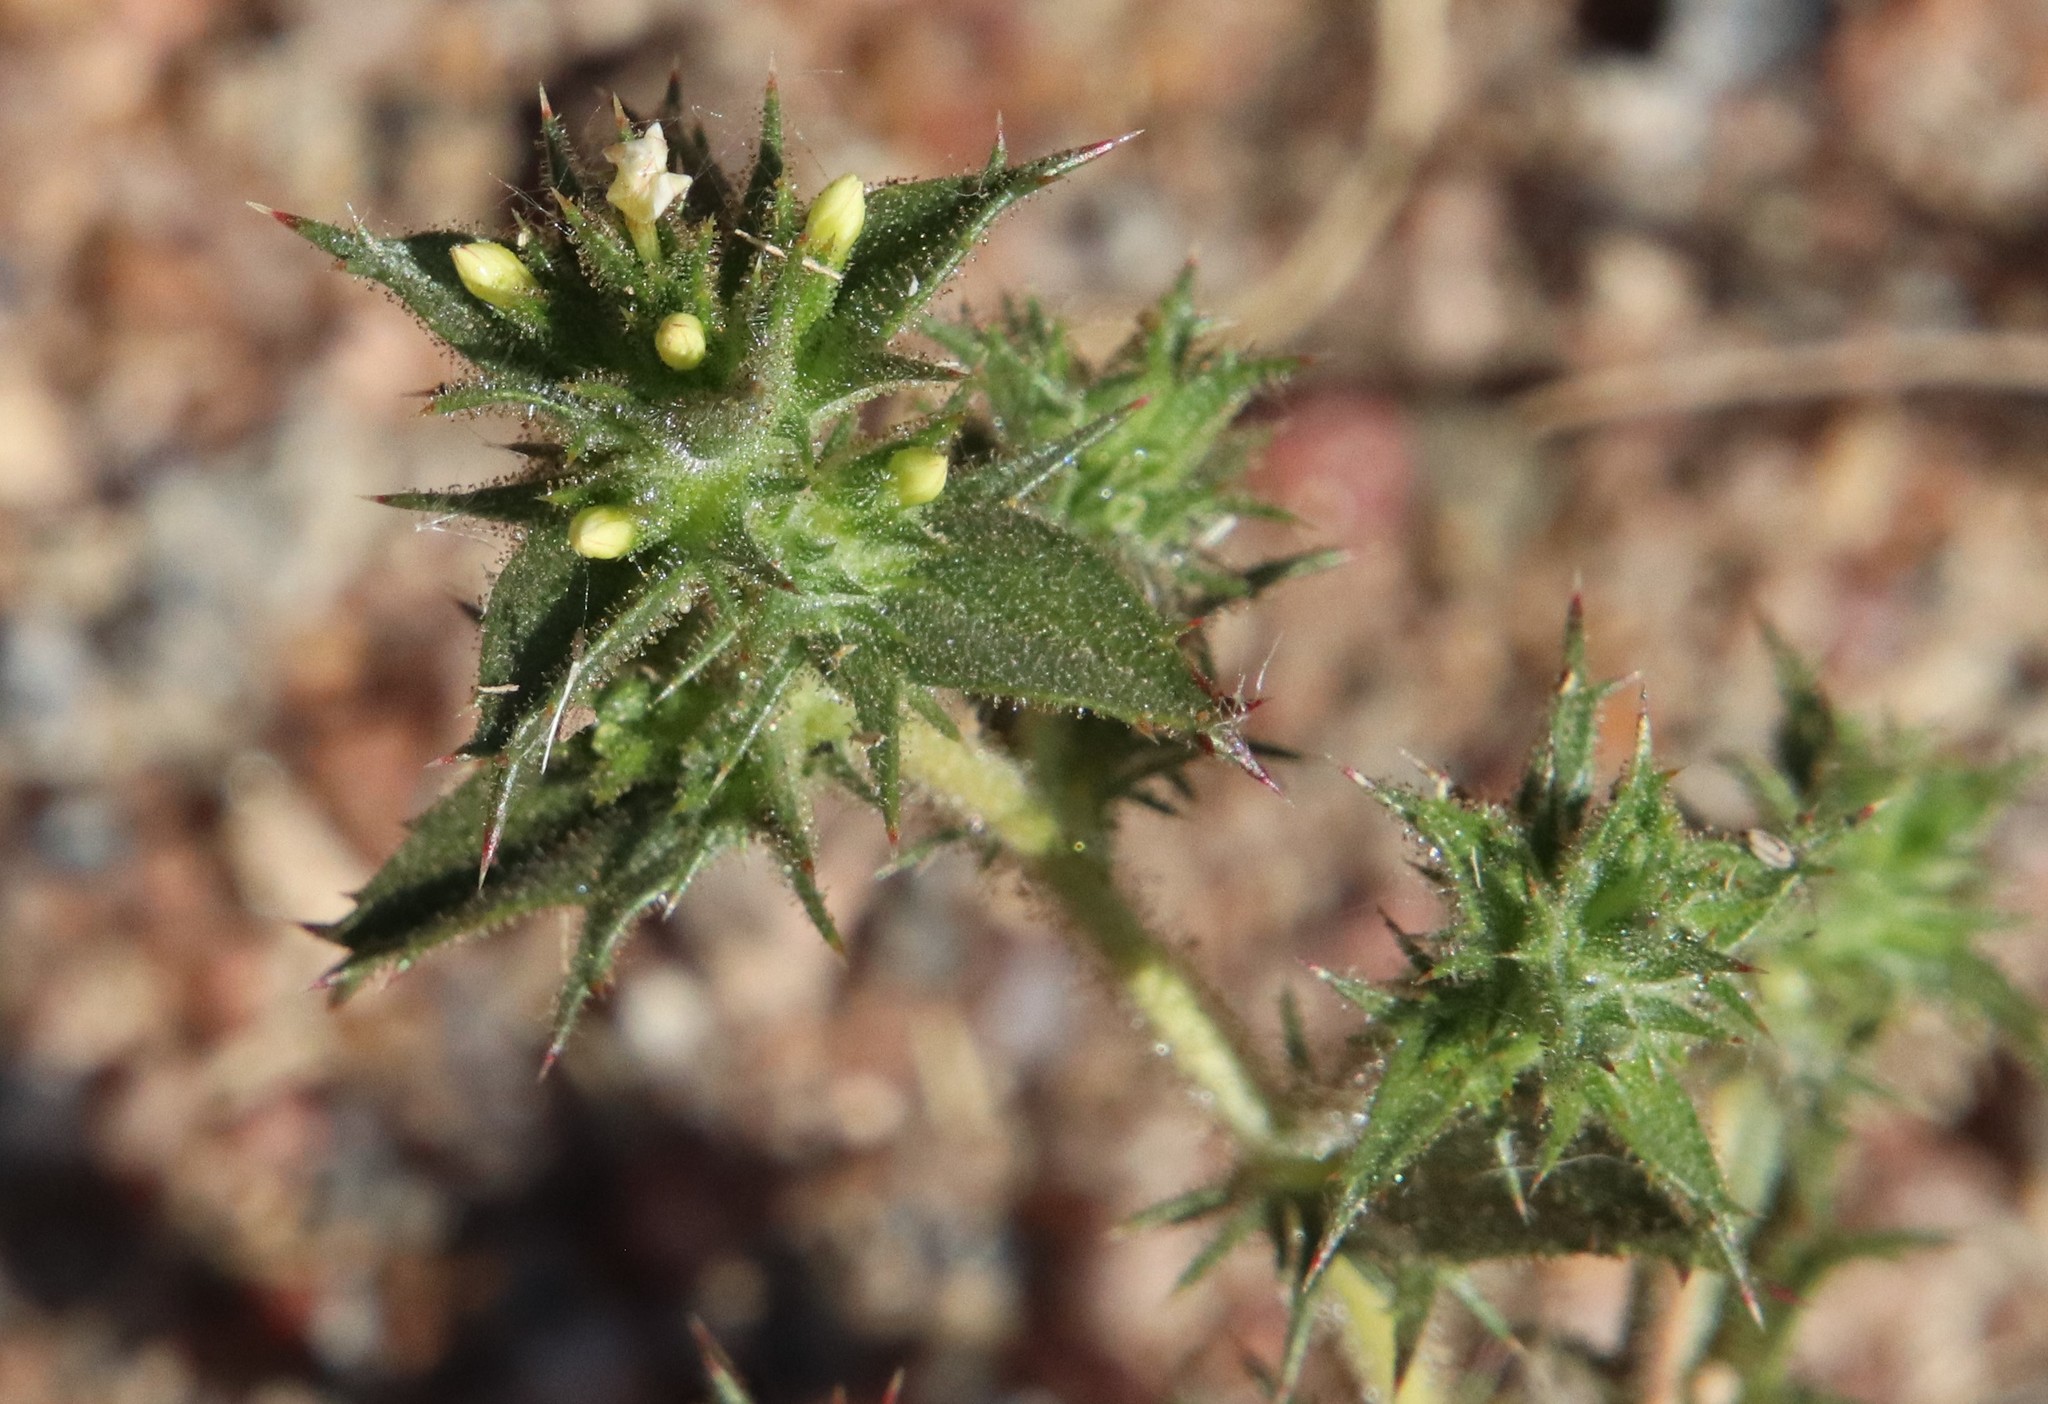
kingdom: Plantae
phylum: Tracheophyta
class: Magnoliopsida
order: Ericales
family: Polemoniaceae
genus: Navarretia
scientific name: Navarretia atractyloides
